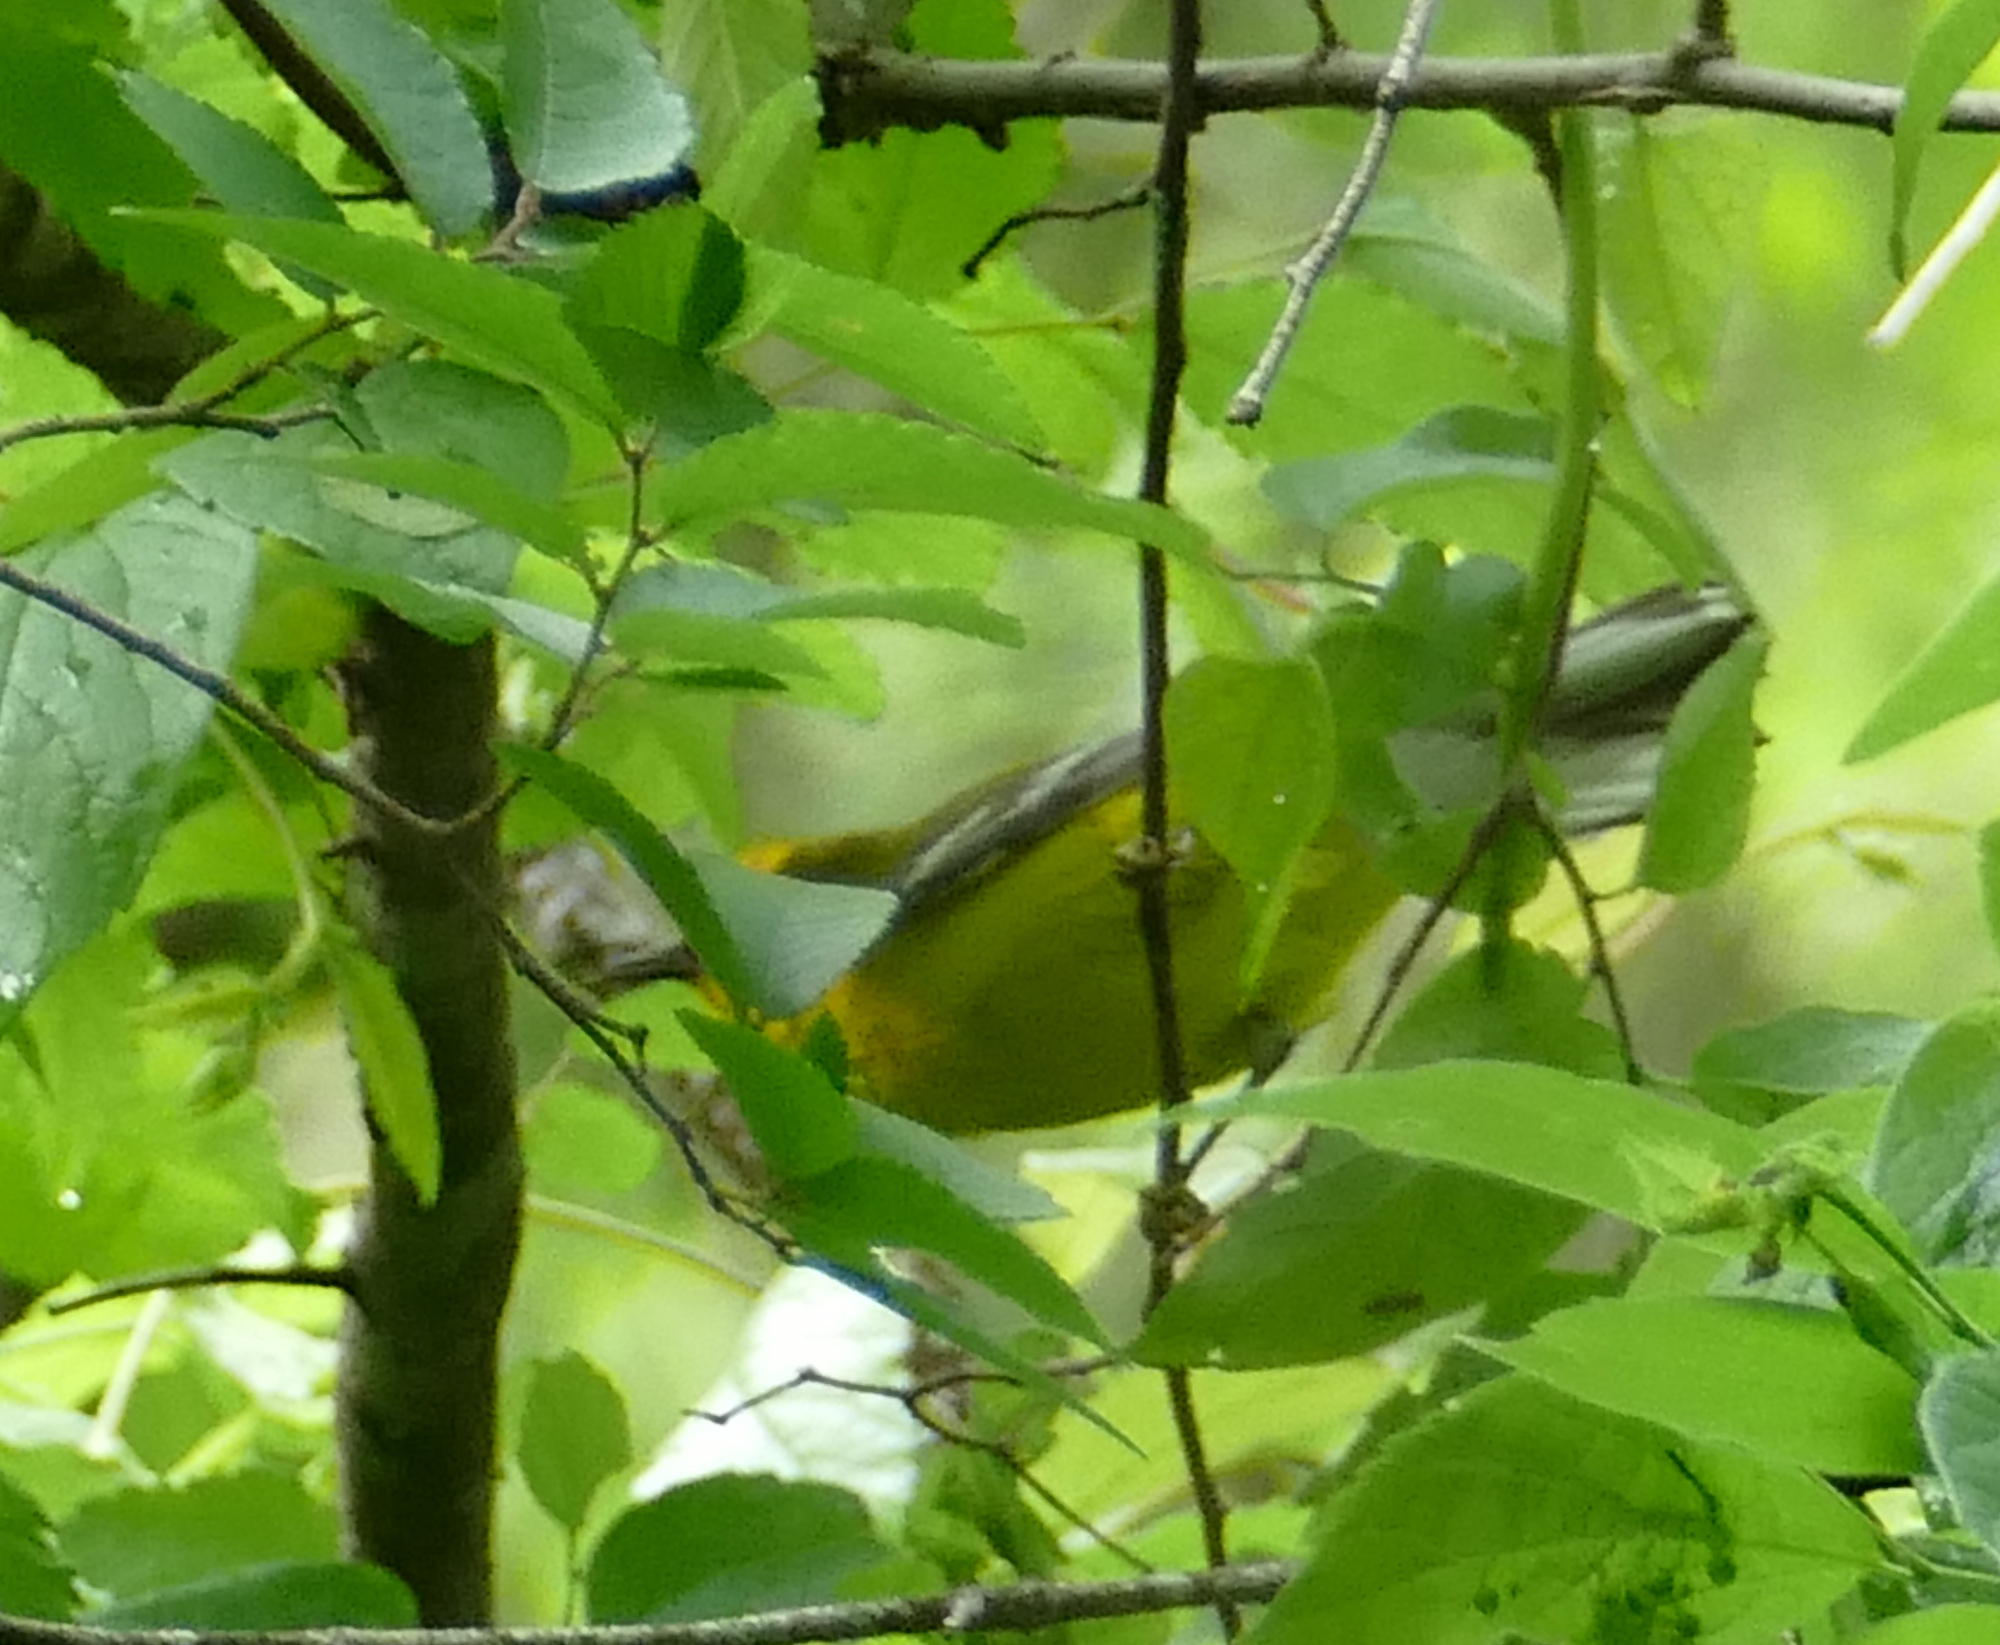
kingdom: Animalia
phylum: Chordata
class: Aves
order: Passeriformes
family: Parulidae
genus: Vermivora
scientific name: Vermivora cyanoptera
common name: Blue-winged warbler
